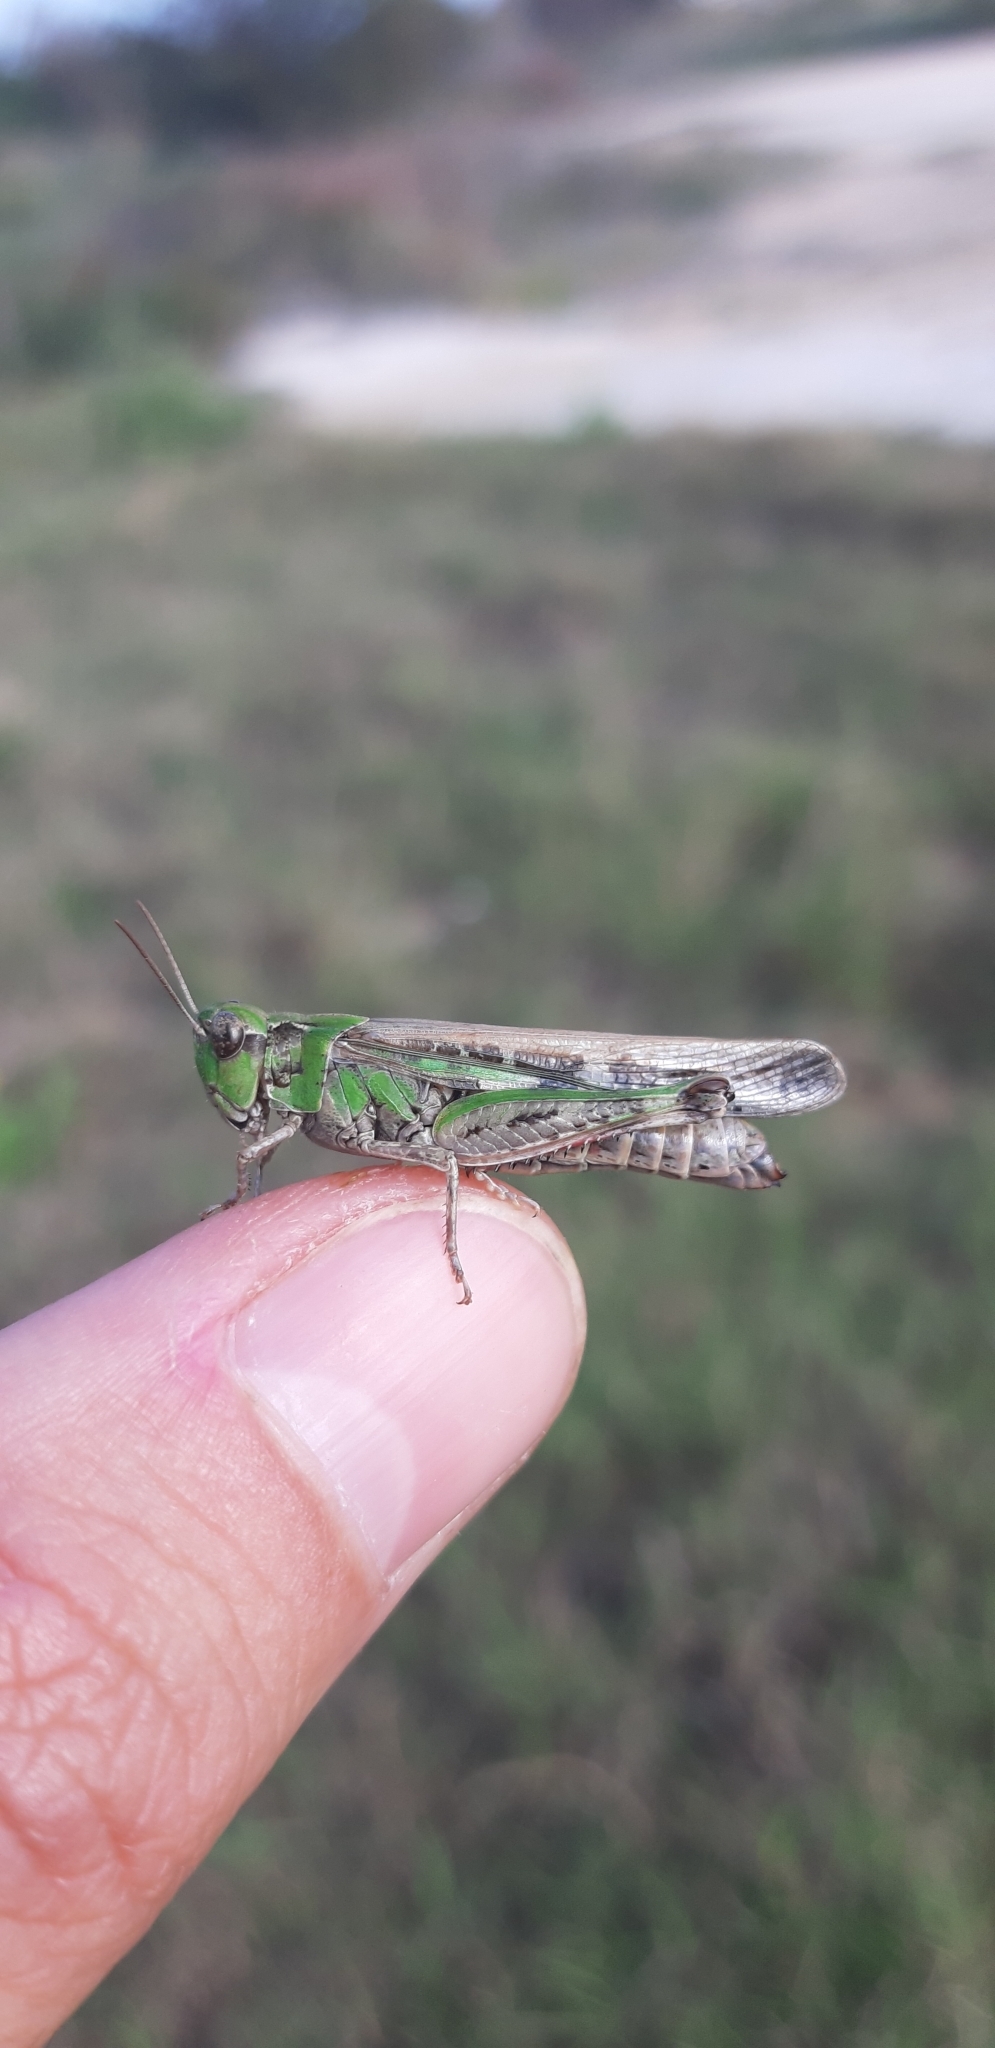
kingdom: Animalia
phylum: Arthropoda
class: Insecta
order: Orthoptera
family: Acrididae
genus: Aiolopus
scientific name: Aiolopus thalassinus
